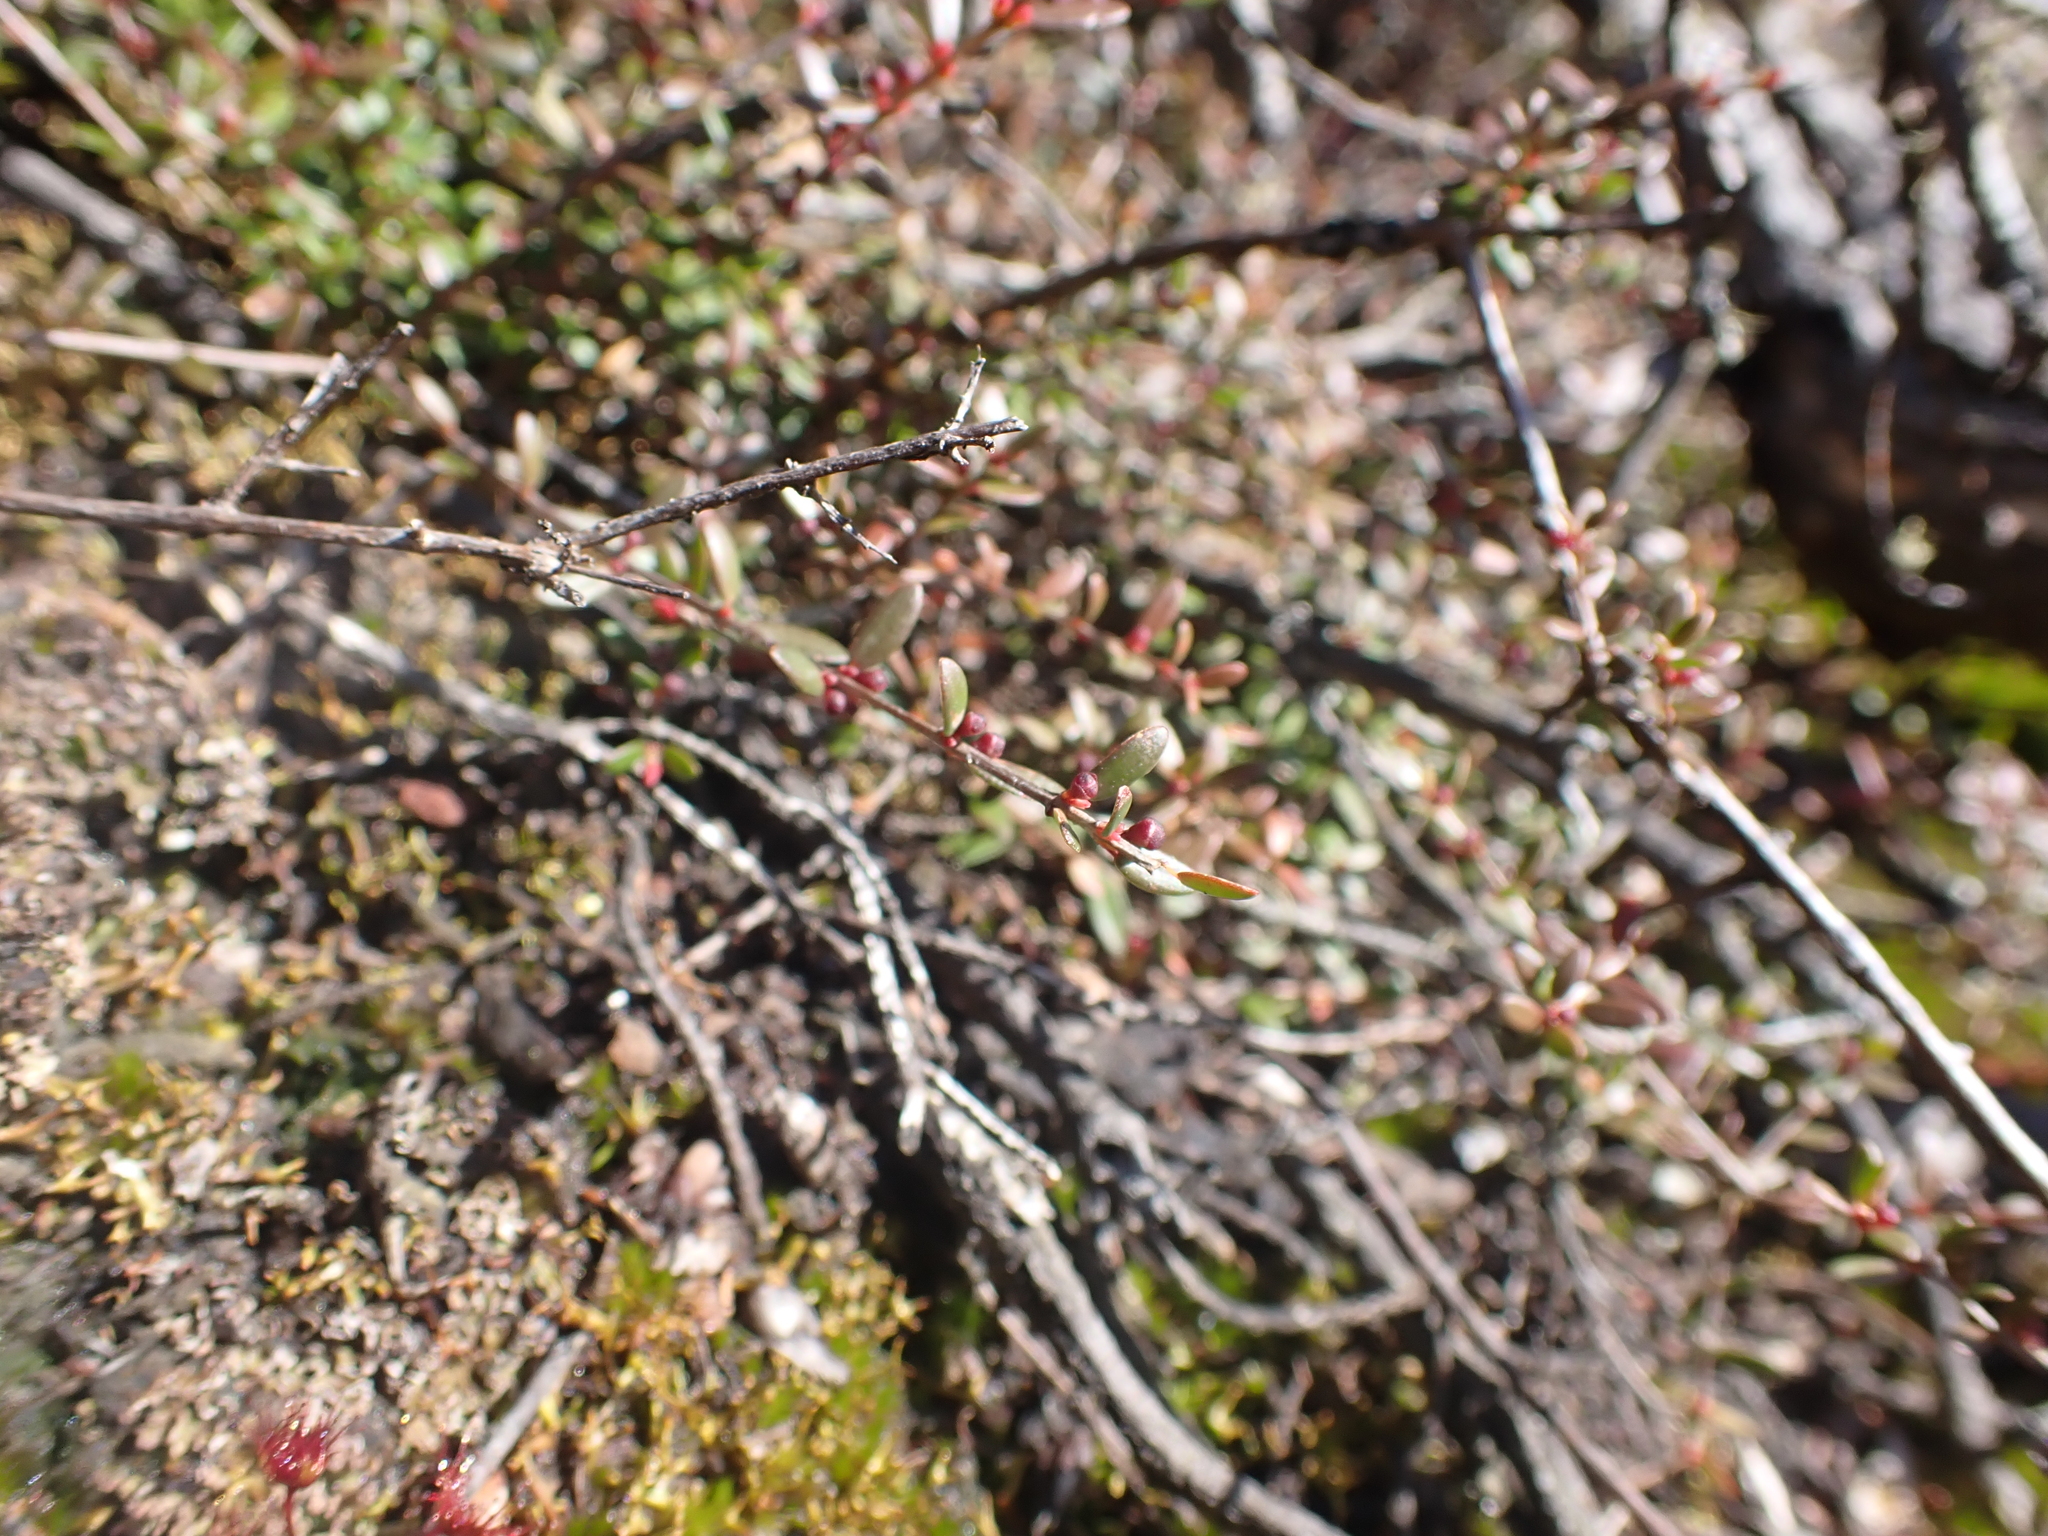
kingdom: Plantae
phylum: Tracheophyta
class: Magnoliopsida
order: Myrtales
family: Myrtaceae
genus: Euryomyrtus
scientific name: Euryomyrtus ramosissima
